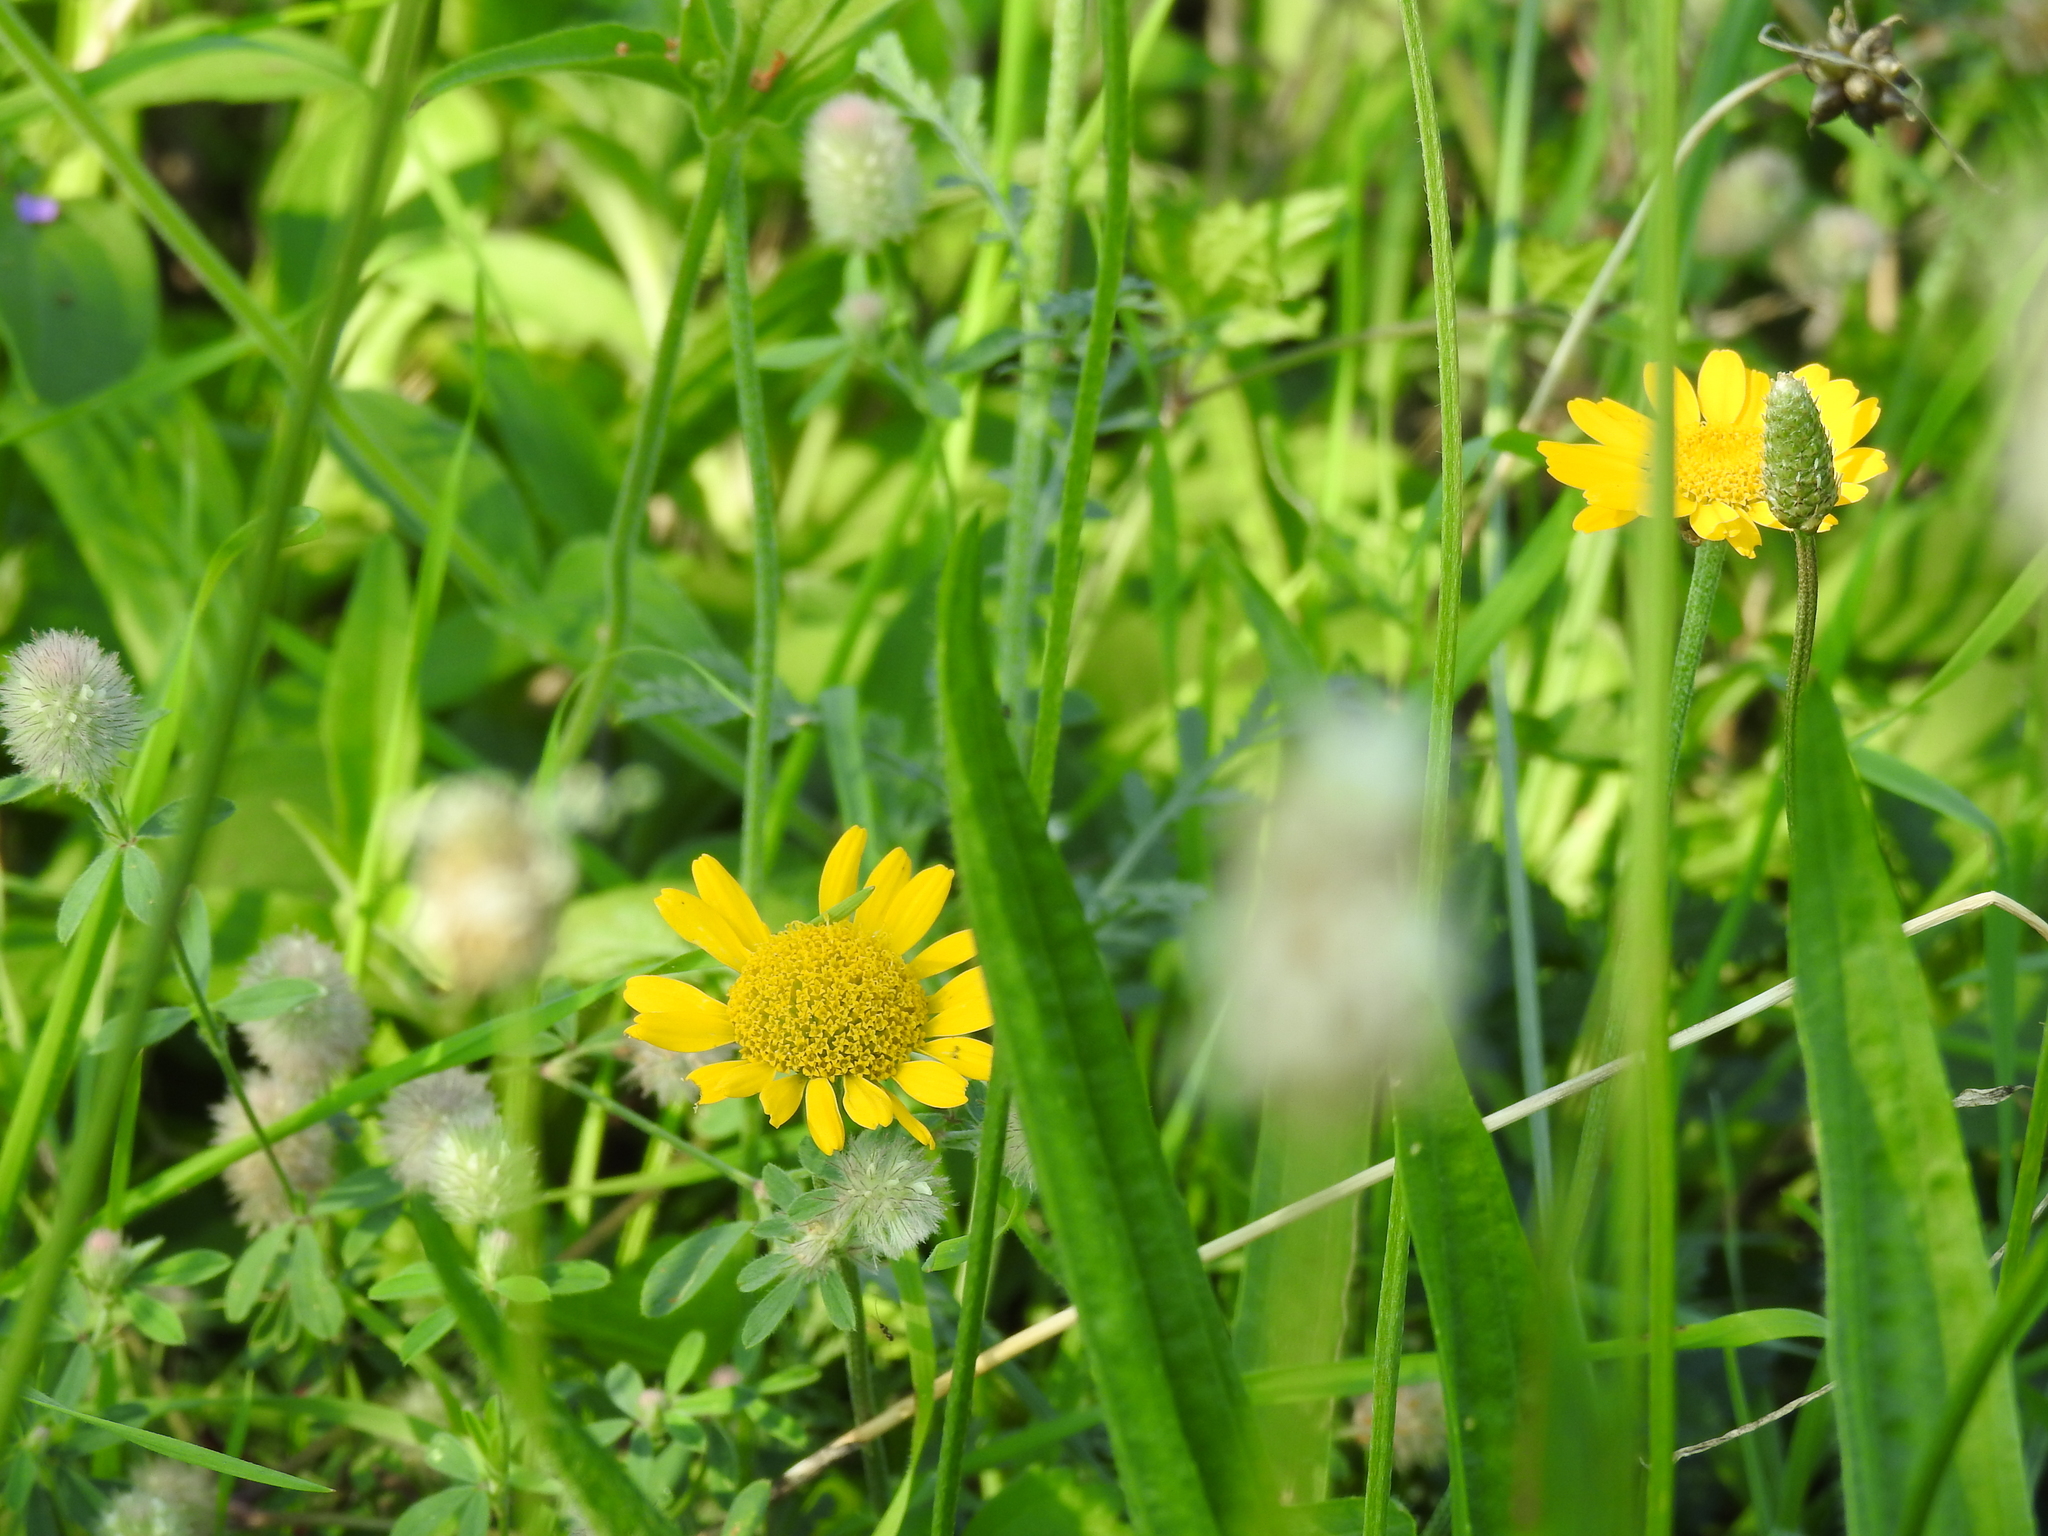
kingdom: Plantae
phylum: Tracheophyta
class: Magnoliopsida
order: Asterales
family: Asteraceae
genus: Cota
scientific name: Cota tinctoria
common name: Golden chamomile
